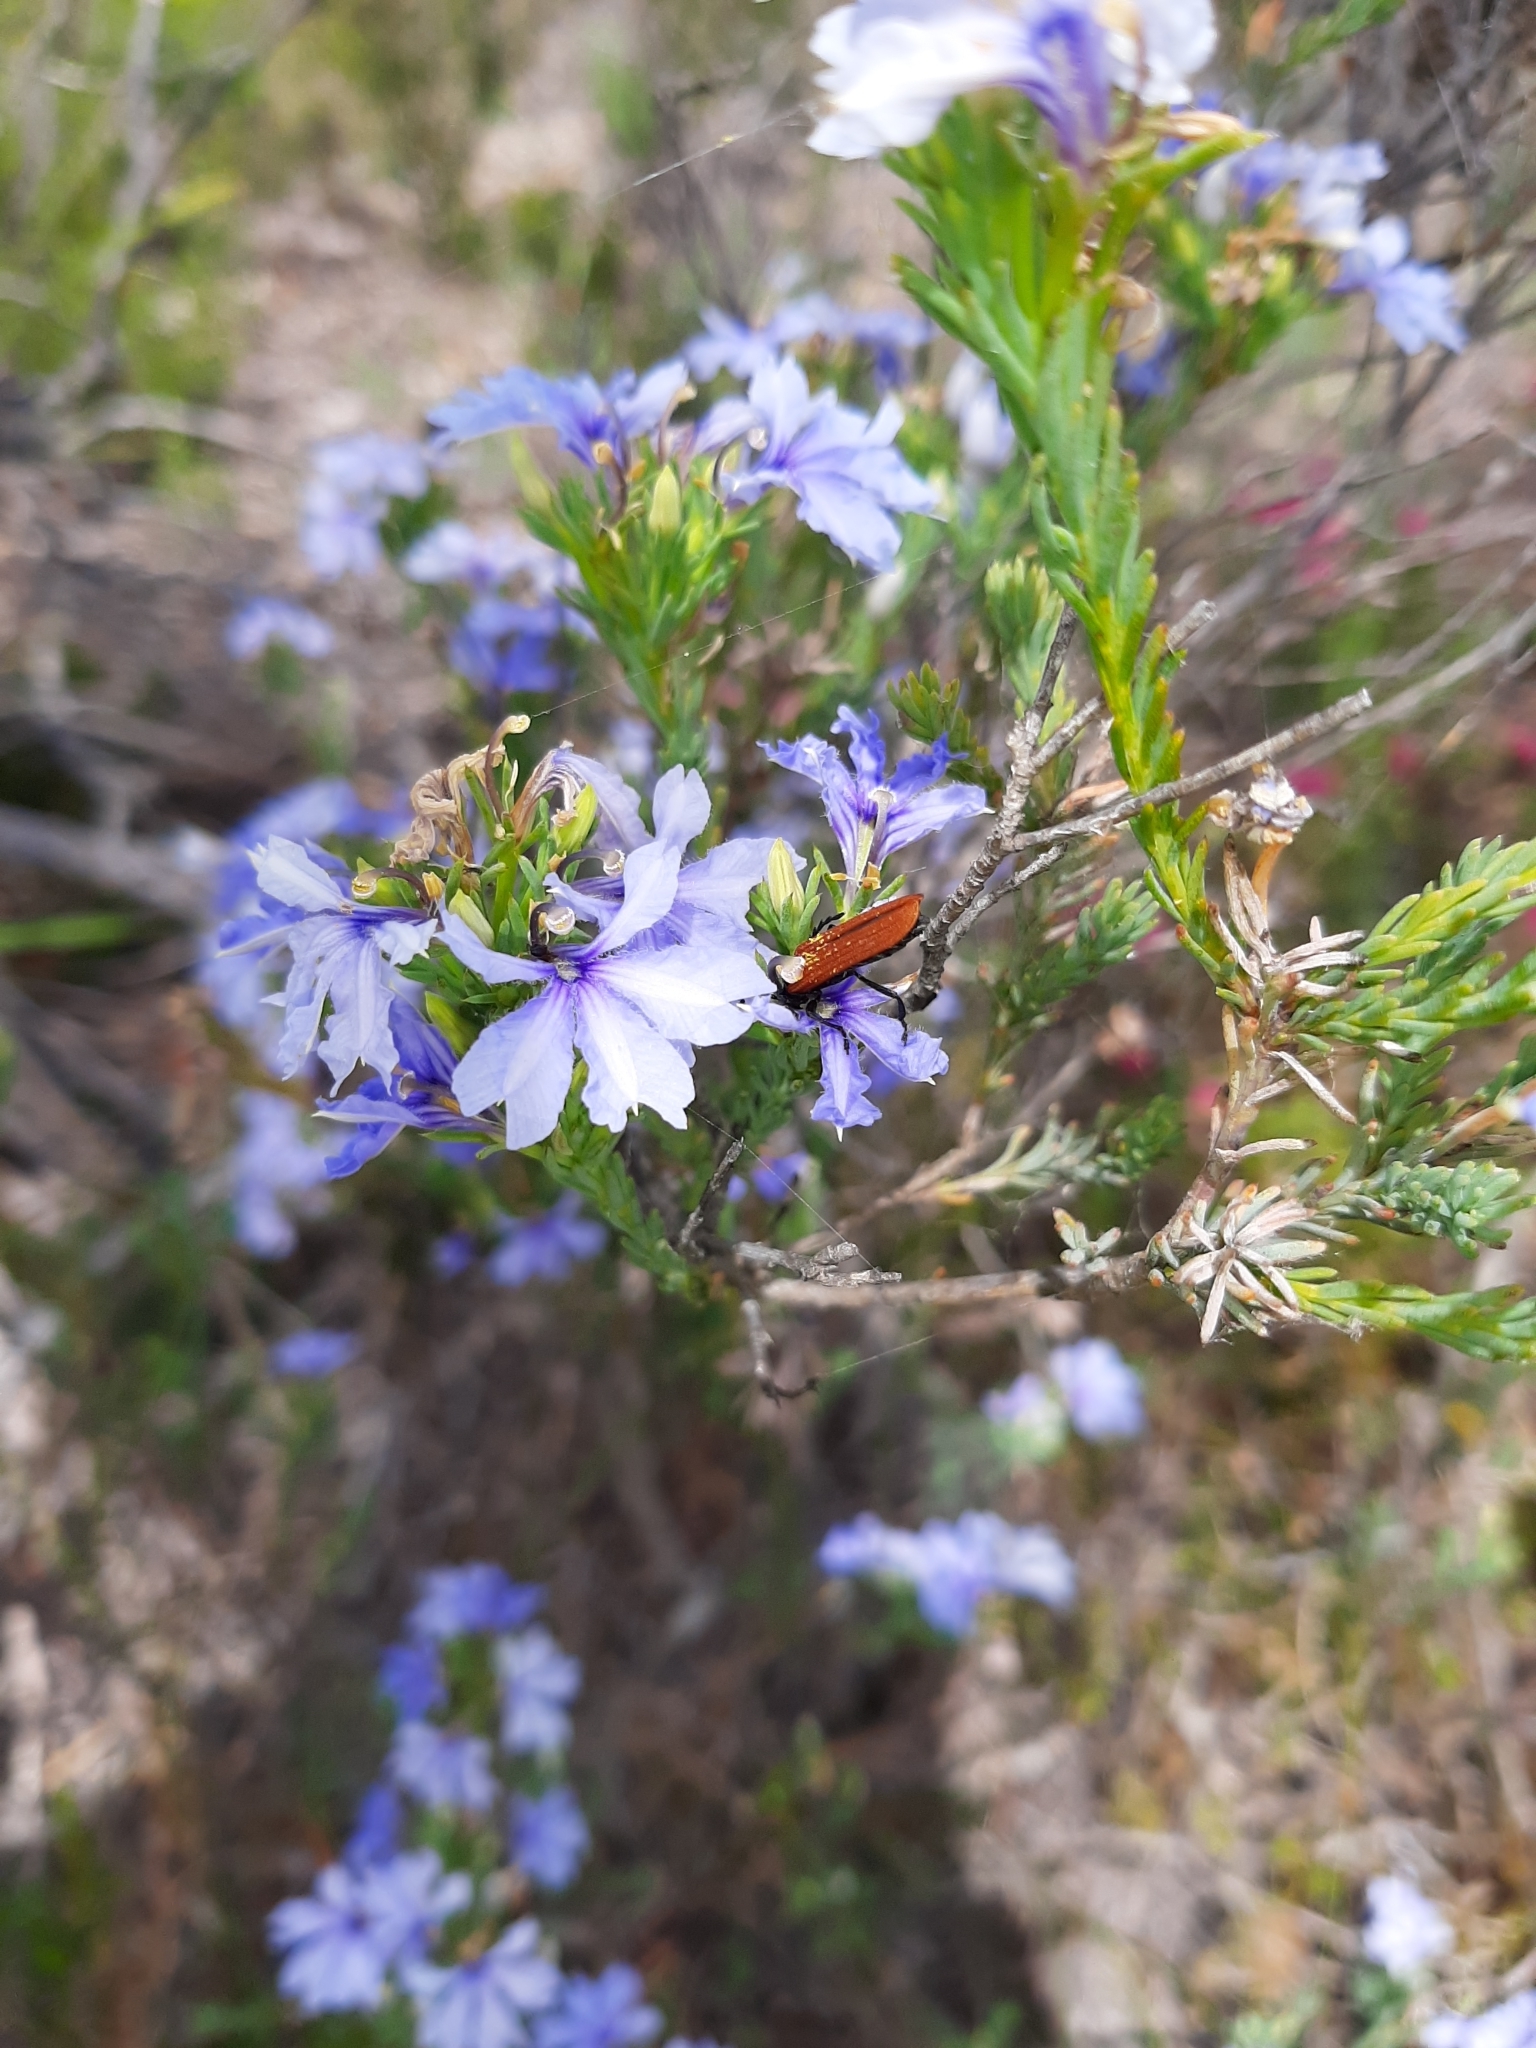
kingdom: Plantae
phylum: Tracheophyta
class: Magnoliopsida
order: Asterales
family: Goodeniaceae
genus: Lechenaultia
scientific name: Lechenaultia floribunda
